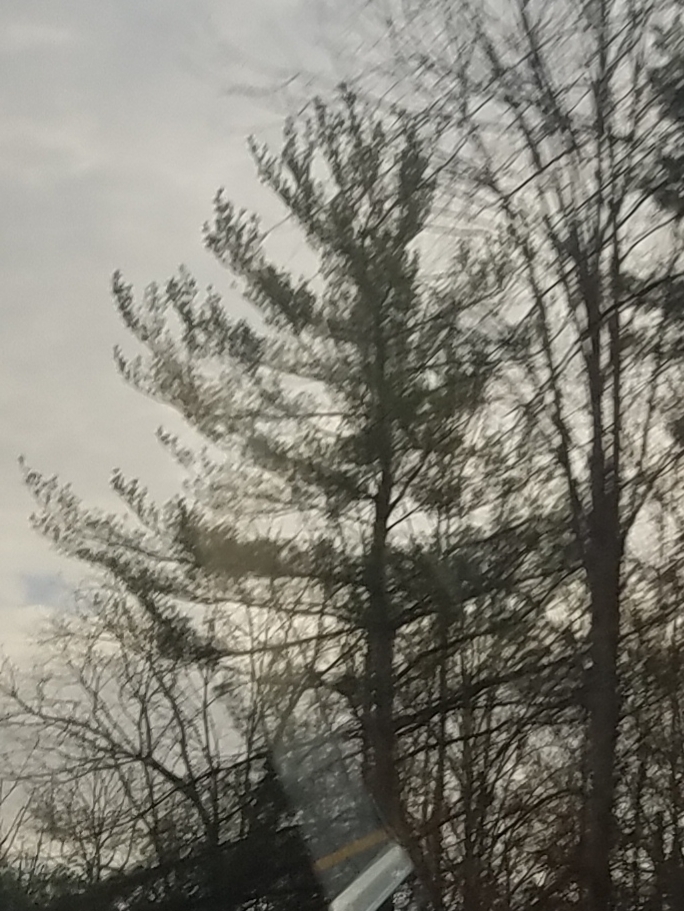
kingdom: Plantae
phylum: Tracheophyta
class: Pinopsida
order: Pinales
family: Pinaceae
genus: Pinus
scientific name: Pinus strobus
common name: Weymouth pine
